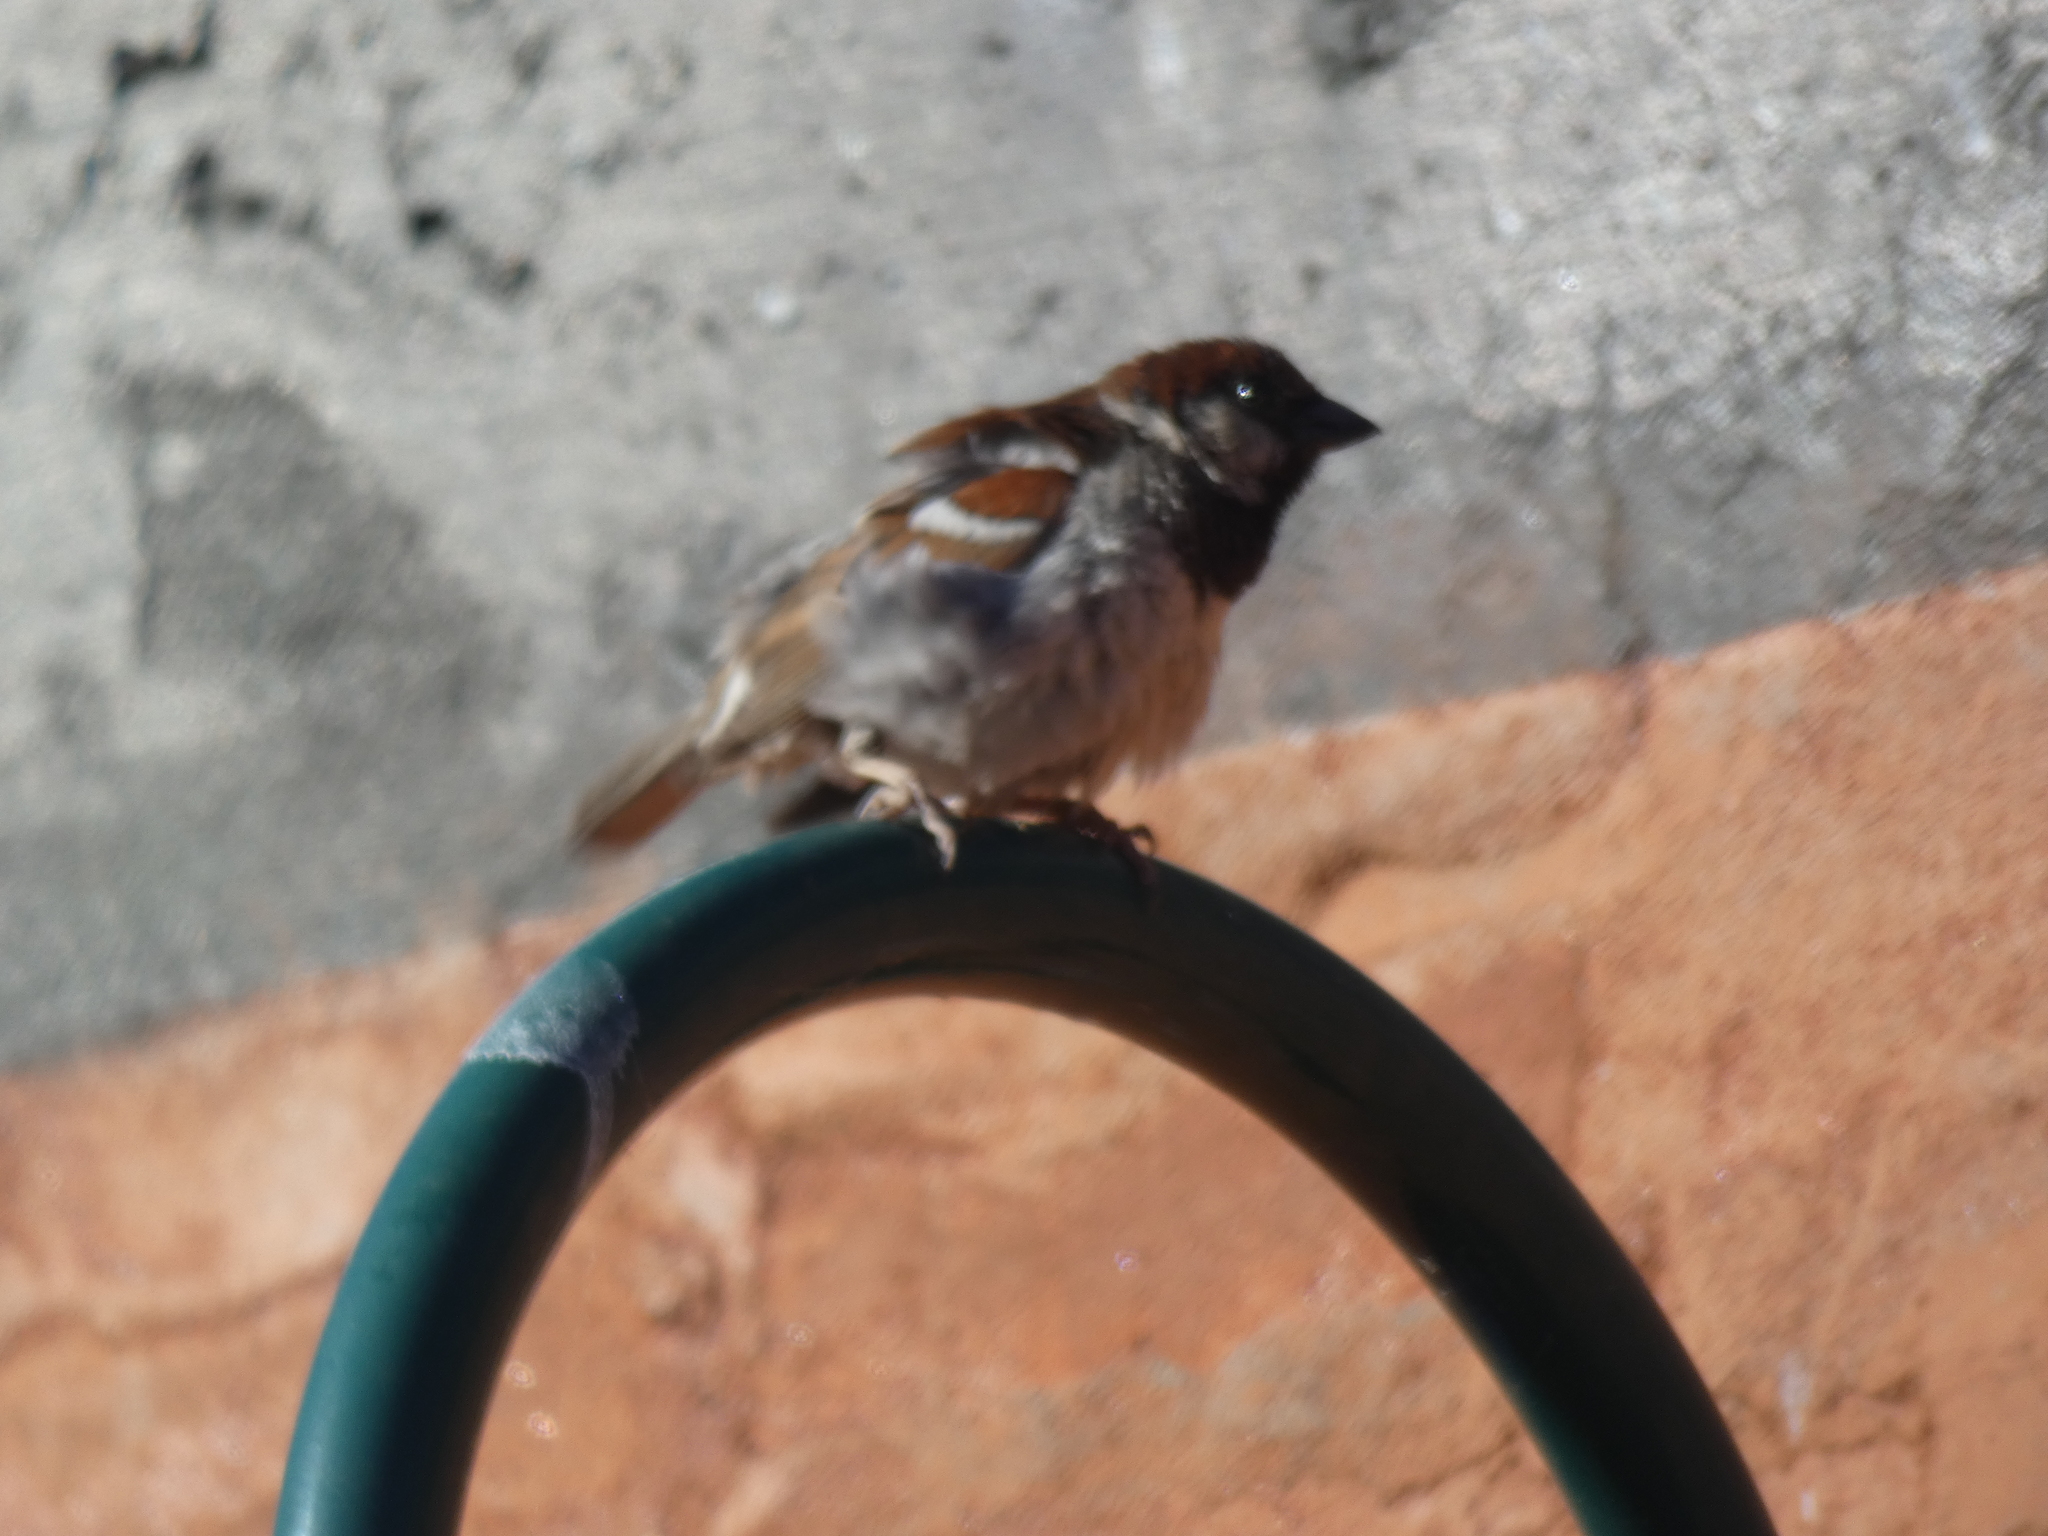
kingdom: Animalia
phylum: Chordata
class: Aves
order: Passeriformes
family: Passeridae
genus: Passer
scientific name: Passer domesticus
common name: House sparrow
